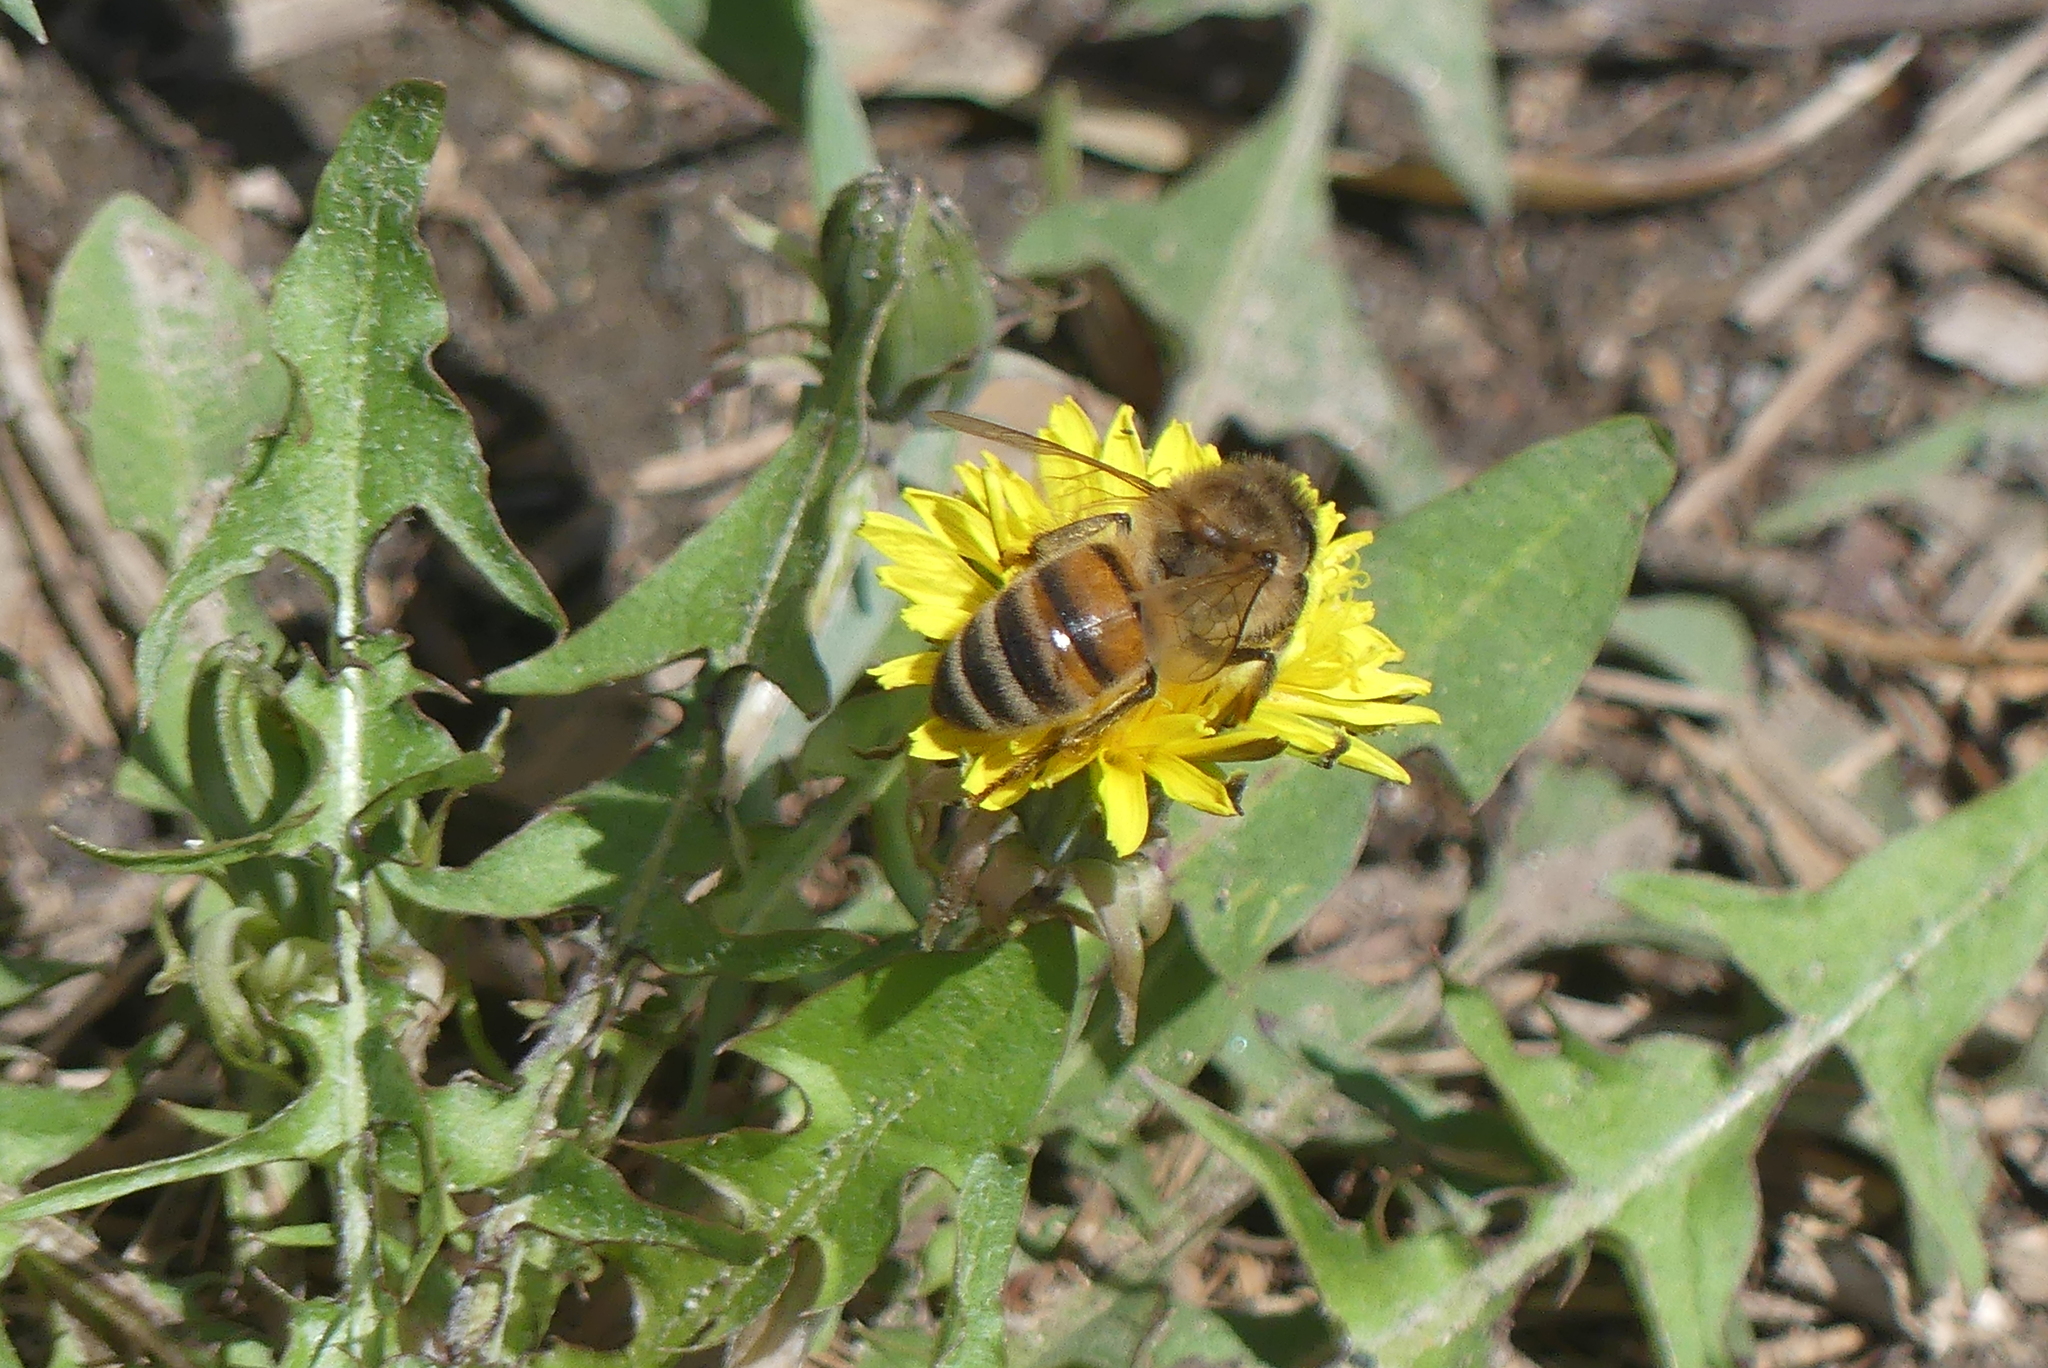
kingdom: Animalia
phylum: Arthropoda
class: Insecta
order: Hymenoptera
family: Apidae
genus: Apis
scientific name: Apis mellifera
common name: Honey bee
